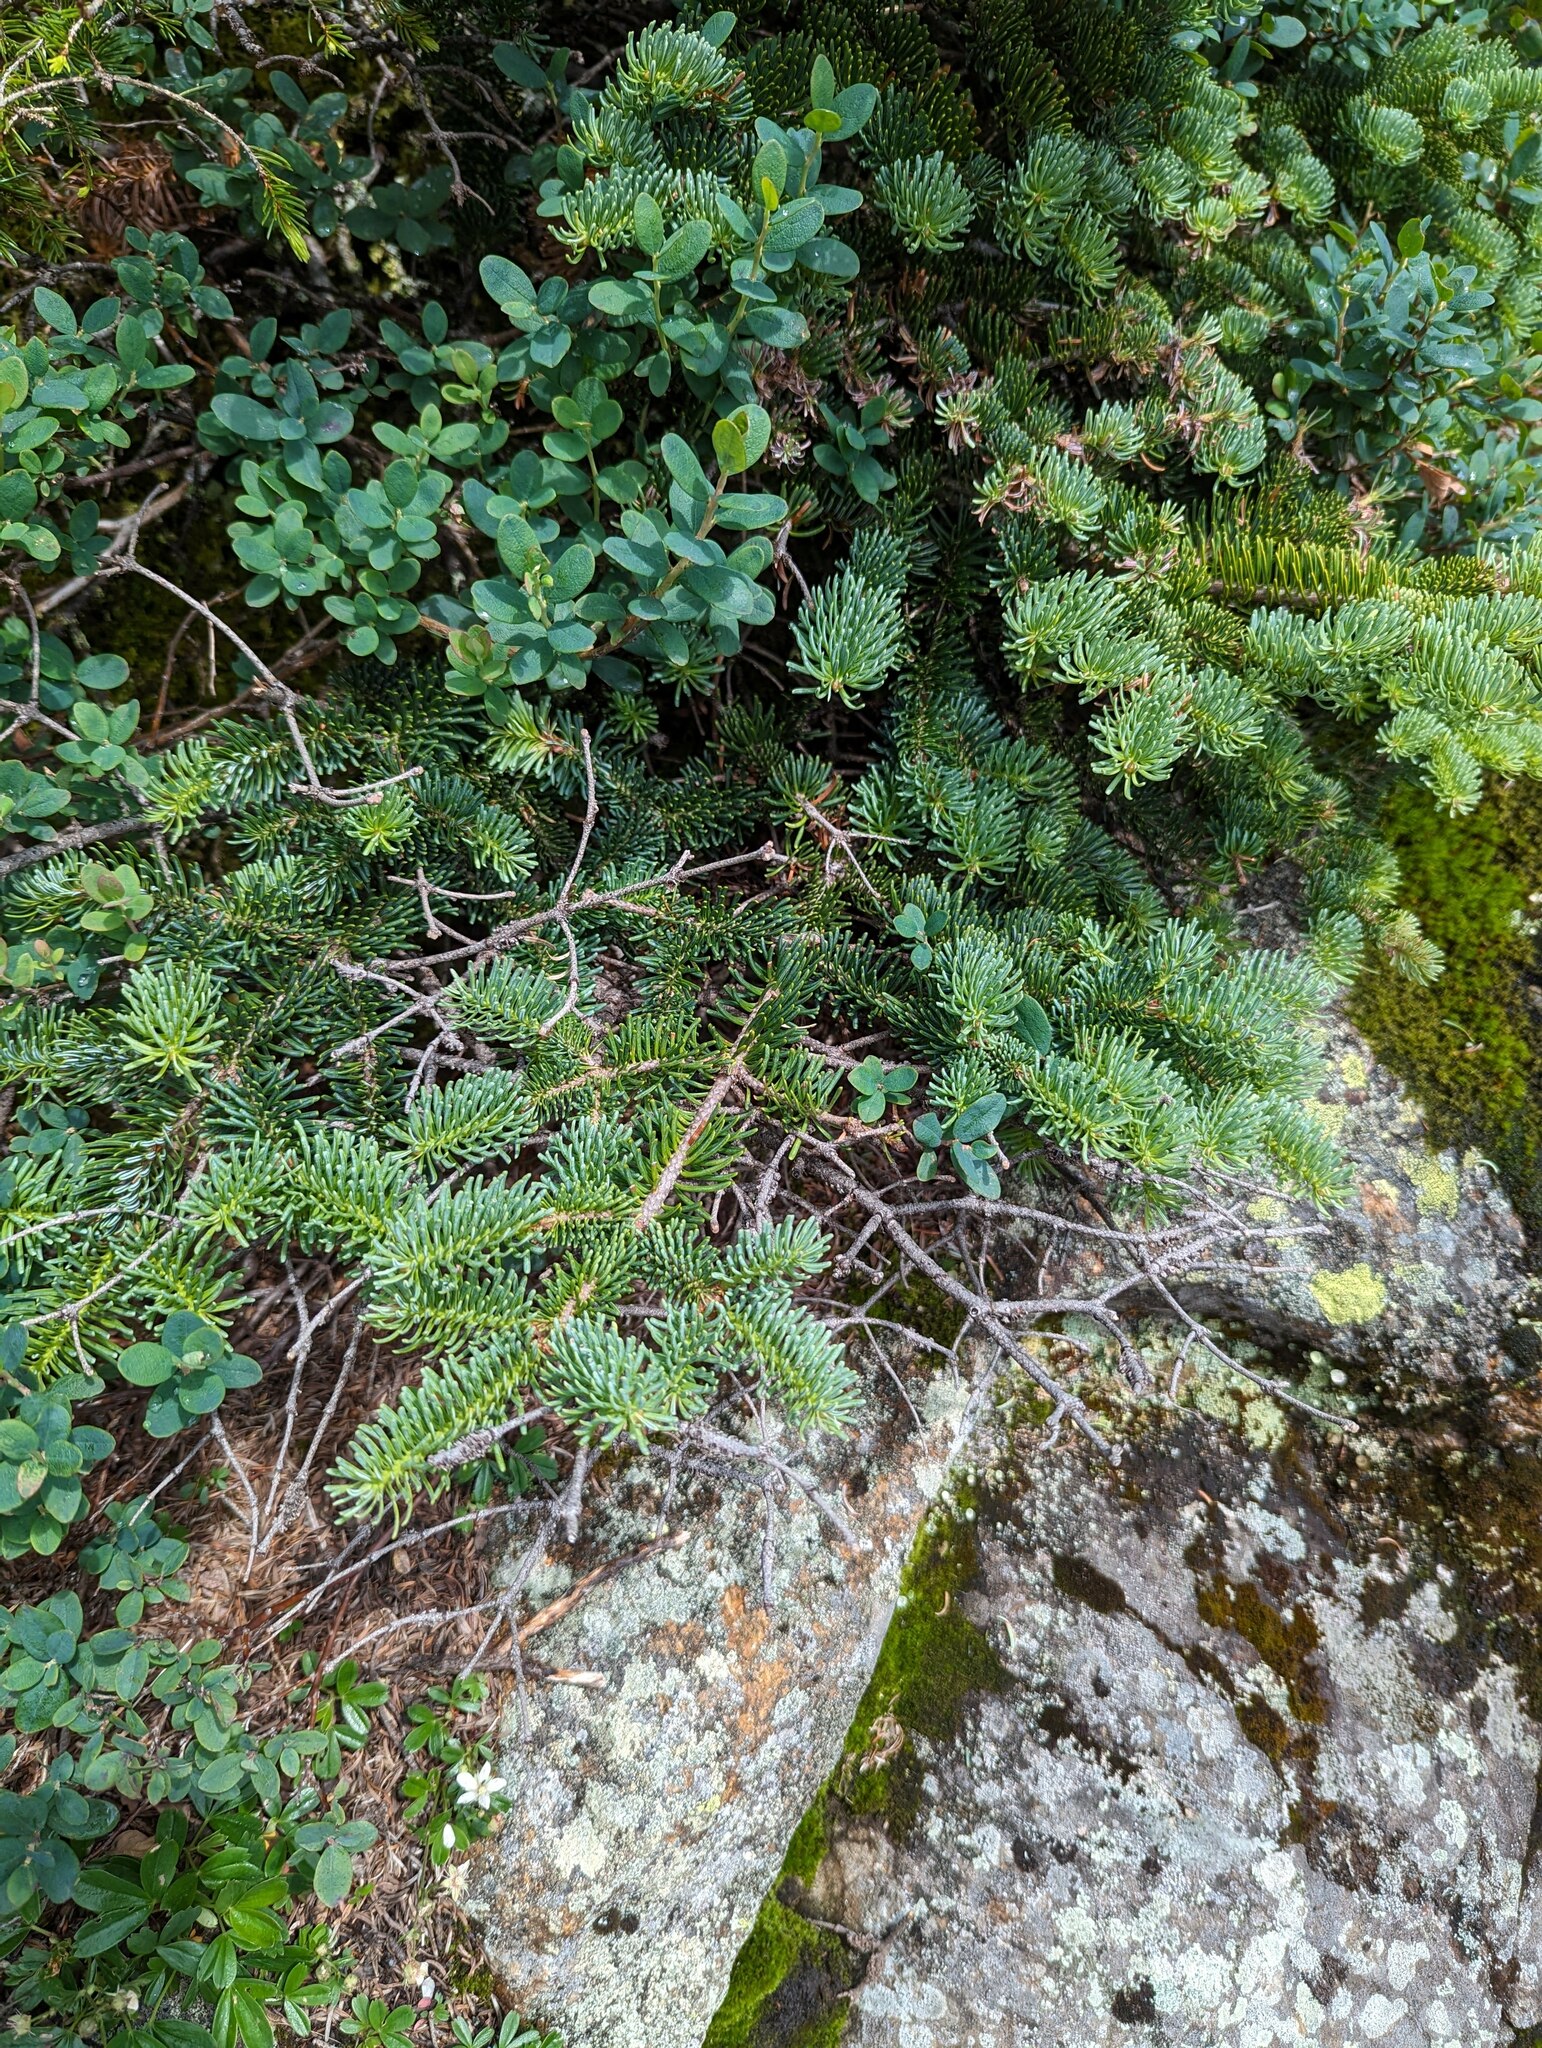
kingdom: Plantae
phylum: Tracheophyta
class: Pinopsida
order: Pinales
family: Pinaceae
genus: Abies
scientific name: Abies balsamea
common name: Balsam fir
